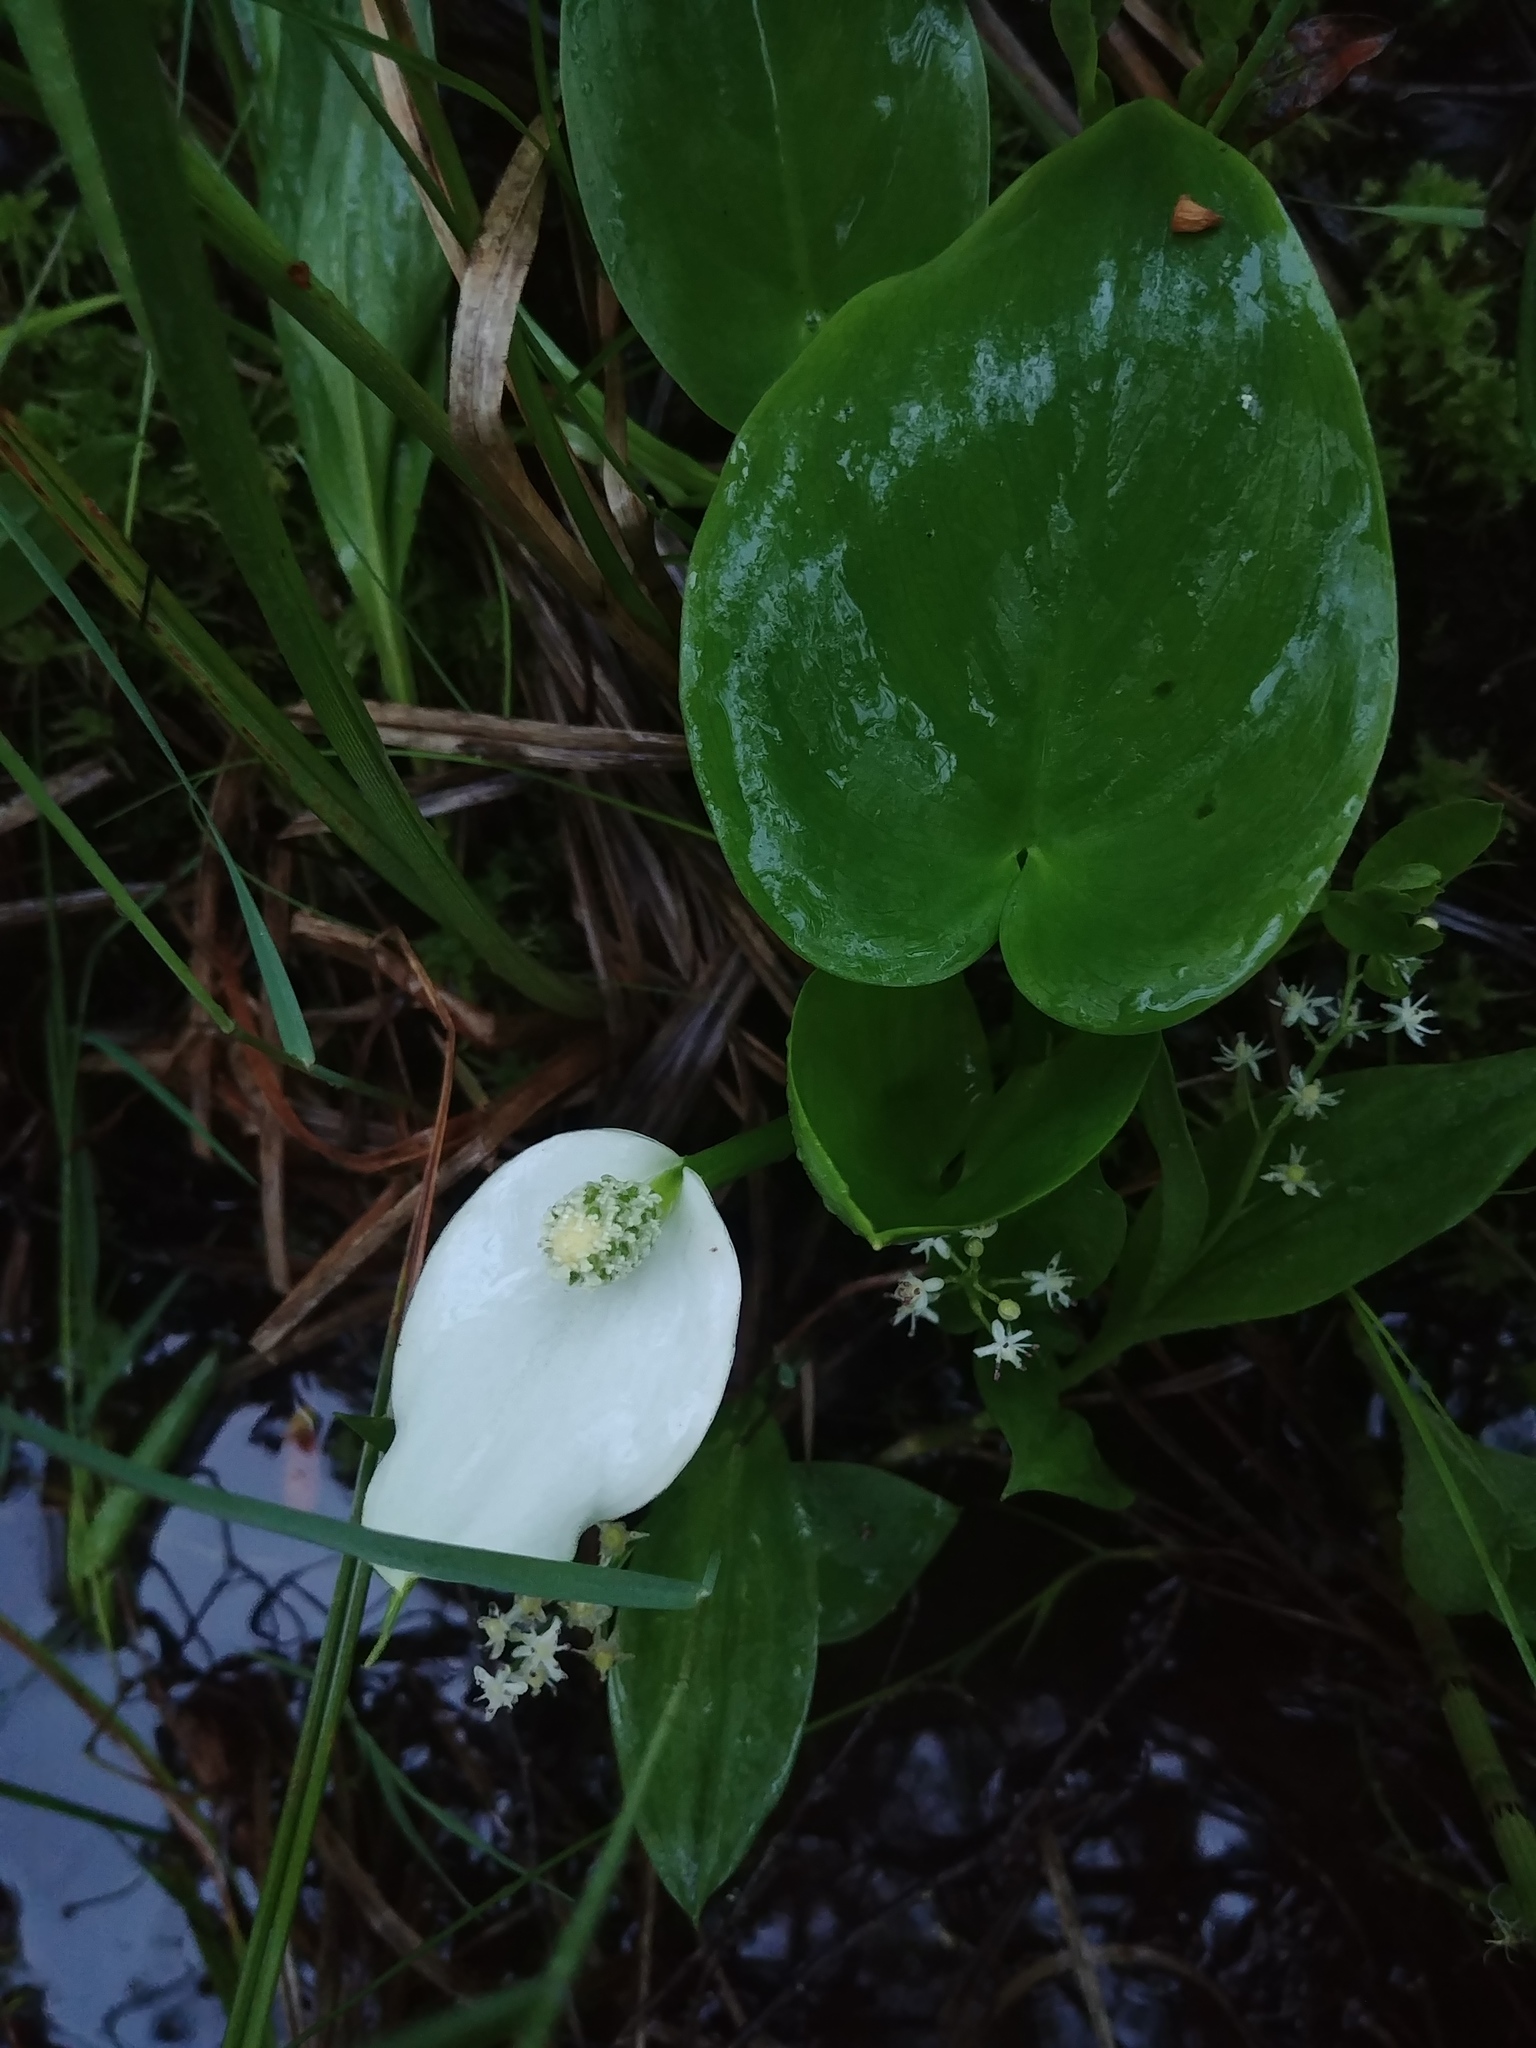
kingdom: Plantae
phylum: Tracheophyta
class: Liliopsida
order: Alismatales
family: Araceae
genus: Calla
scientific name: Calla palustris
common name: Bog arum
